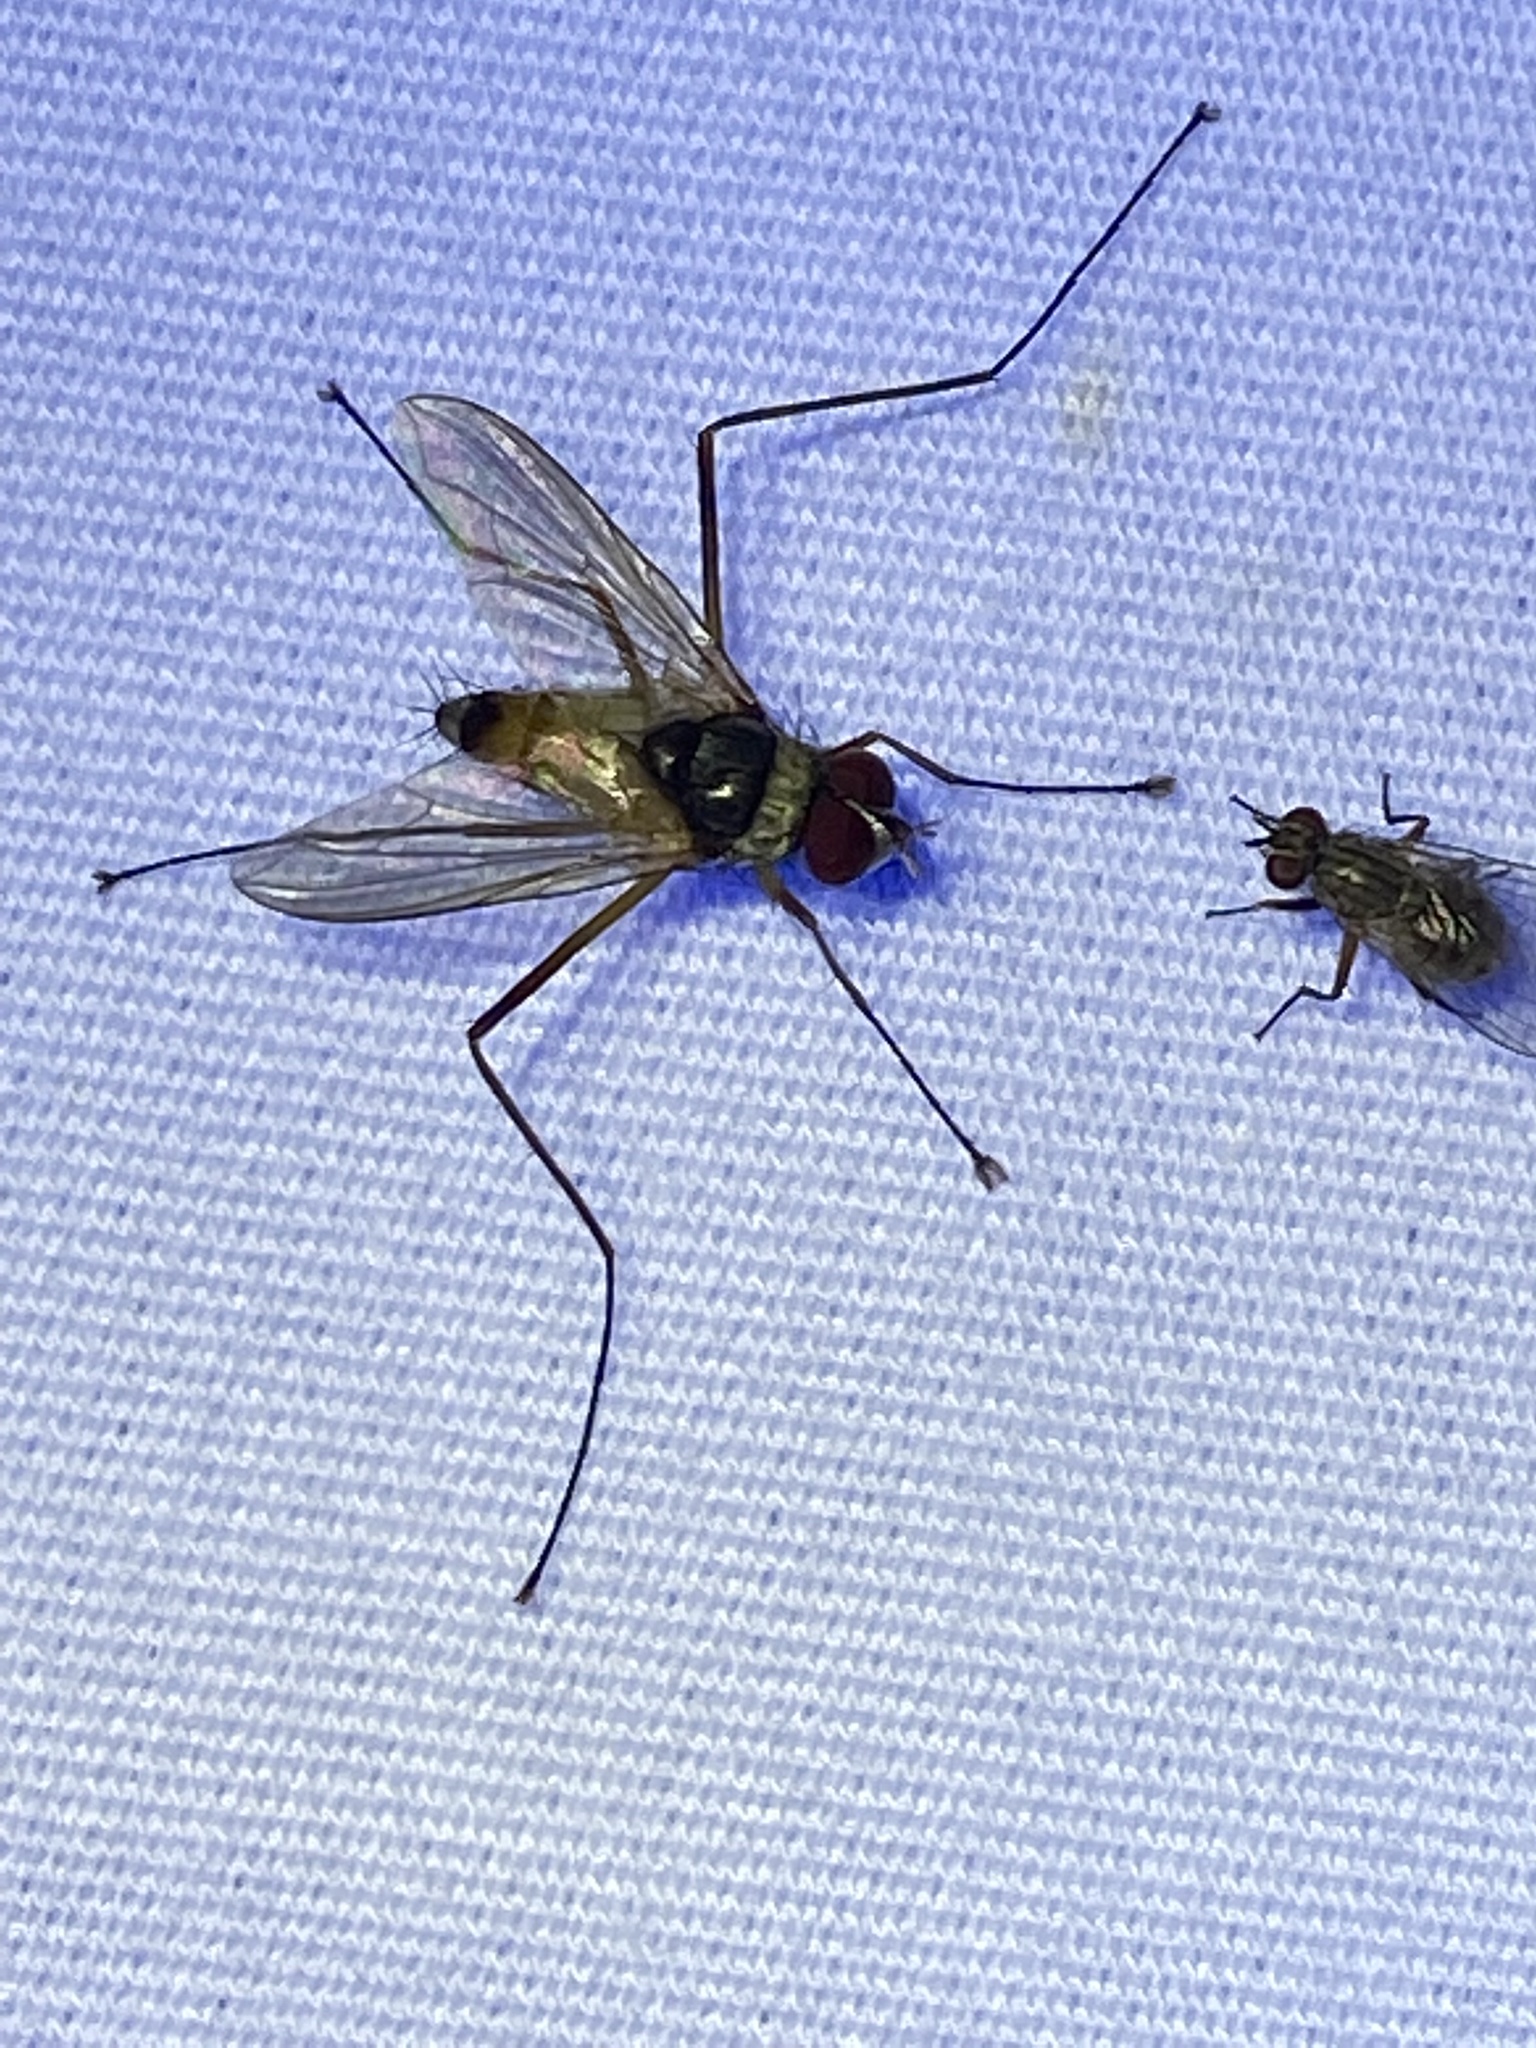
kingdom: Animalia
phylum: Arthropoda
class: Insecta
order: Diptera
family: Tachinidae
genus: Cholomyia
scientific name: Cholomyia inaequipes
